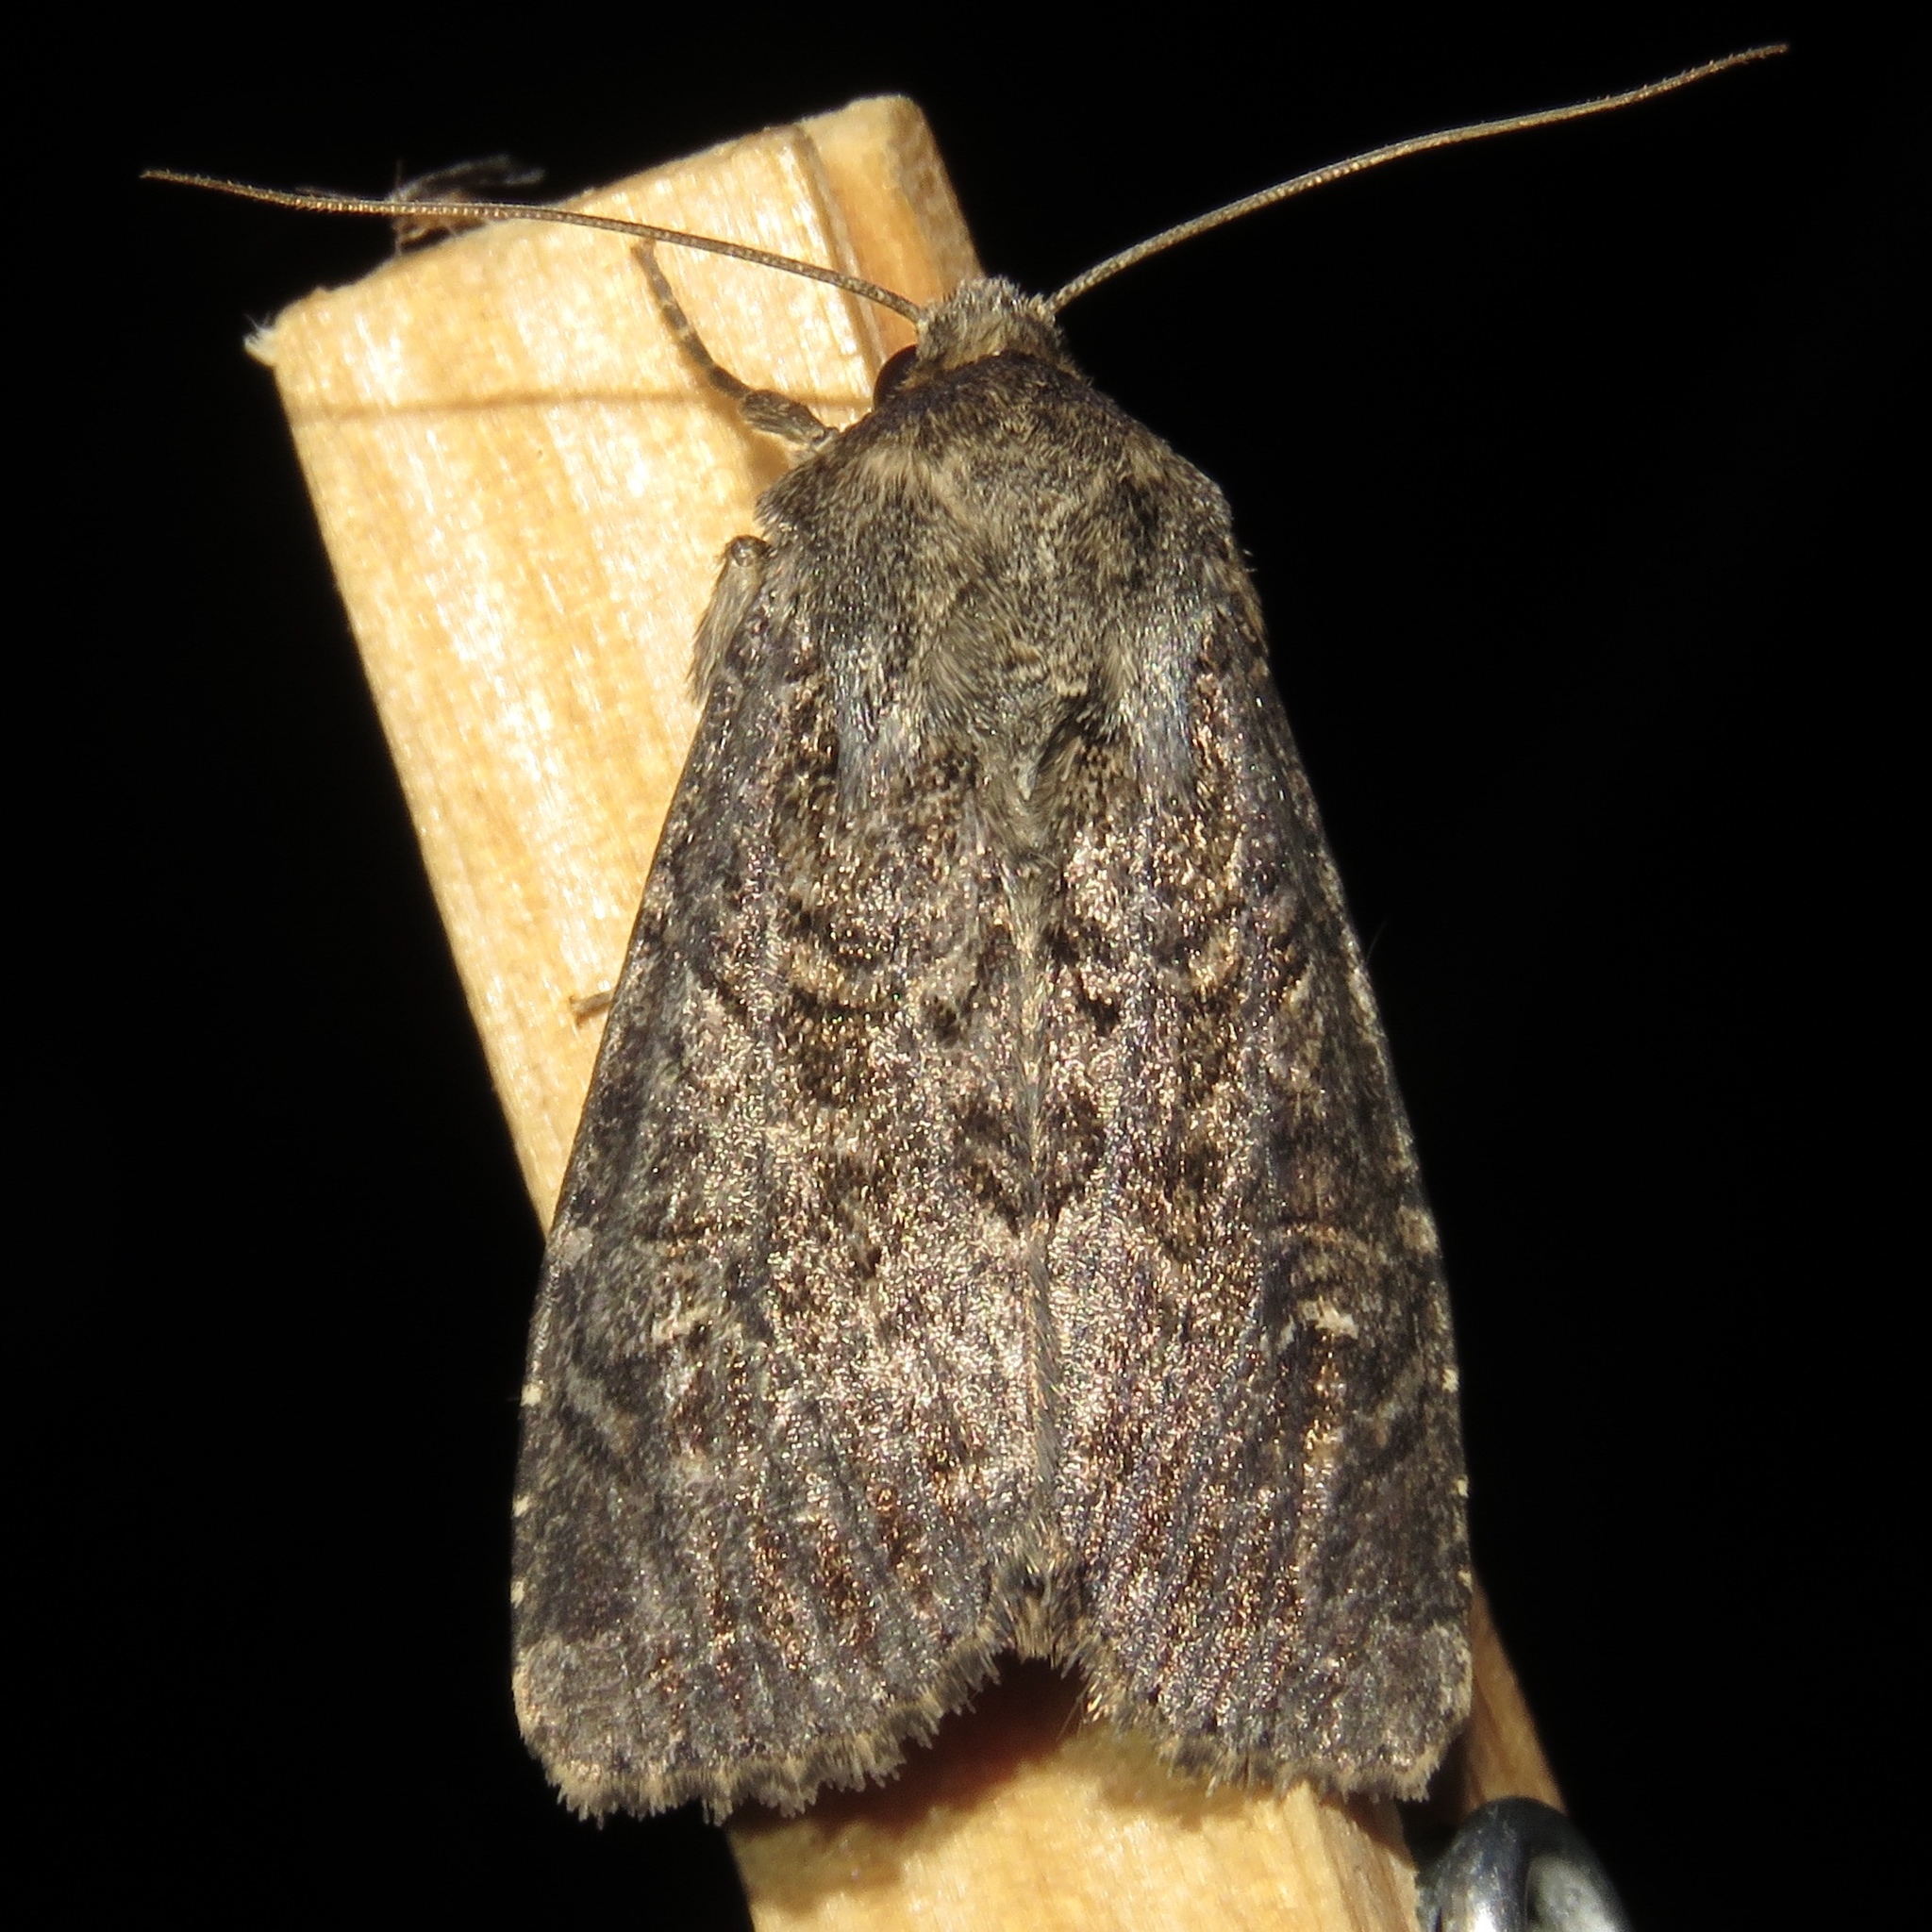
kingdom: Animalia
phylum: Arthropoda
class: Insecta
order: Lepidoptera
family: Noctuidae
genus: Apamea
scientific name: Apamea devastator
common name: Glassy cutworm
